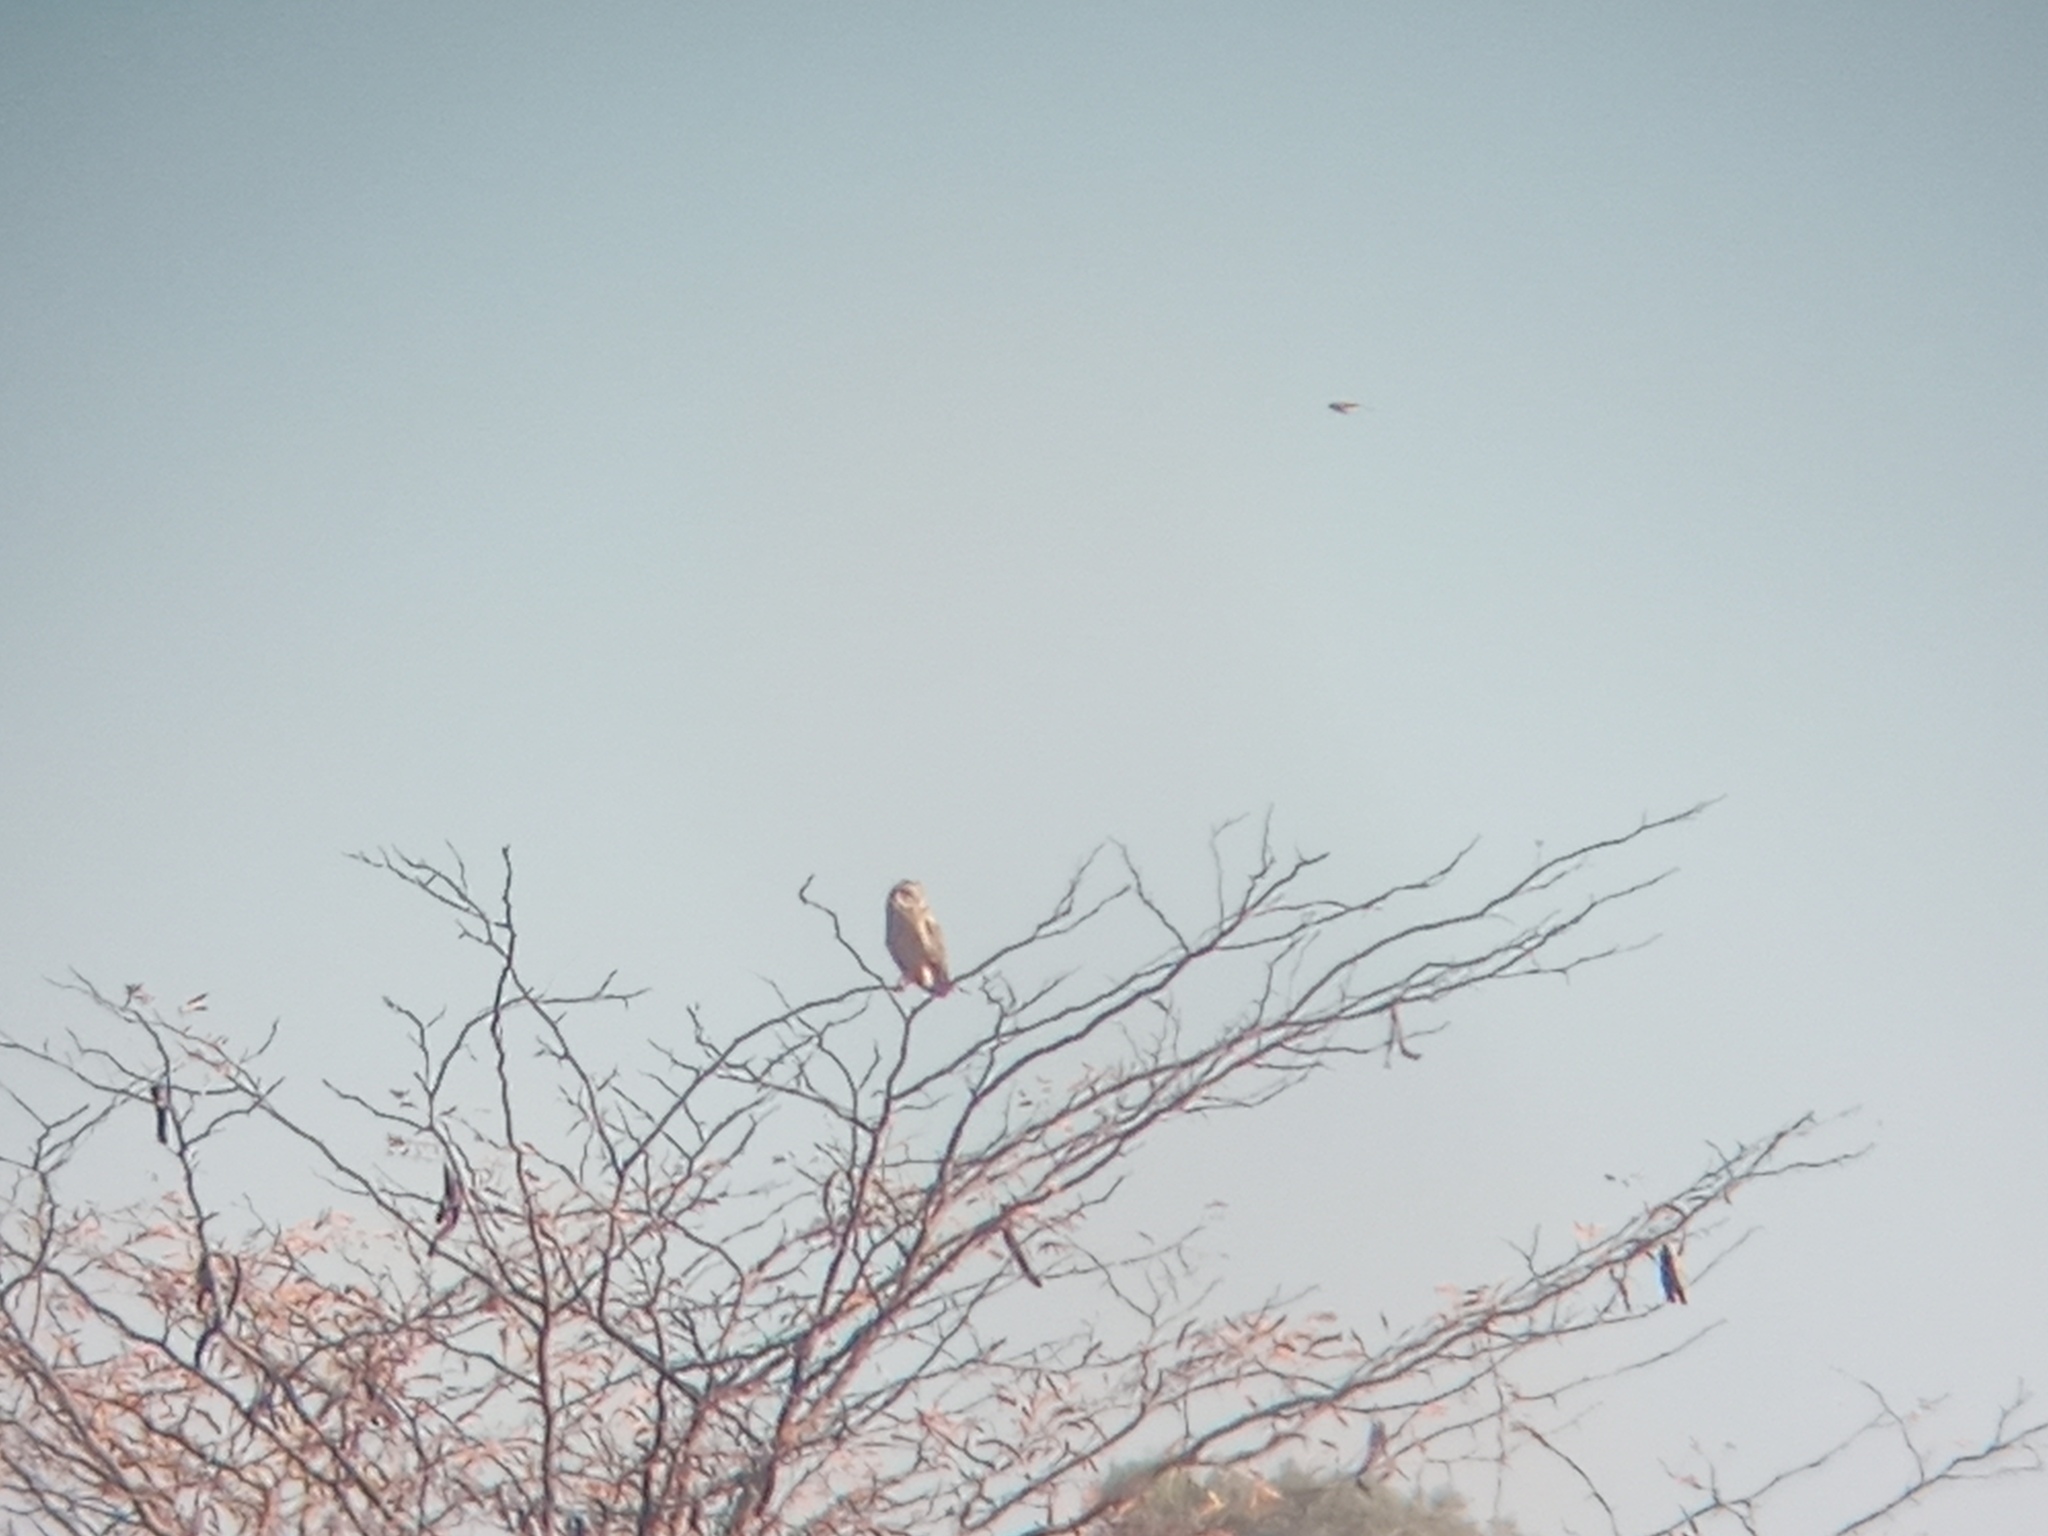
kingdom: Animalia
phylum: Chordata
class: Aves
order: Strigiformes
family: Strigidae
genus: Asio
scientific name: Asio flammeus
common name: Short-eared owl
